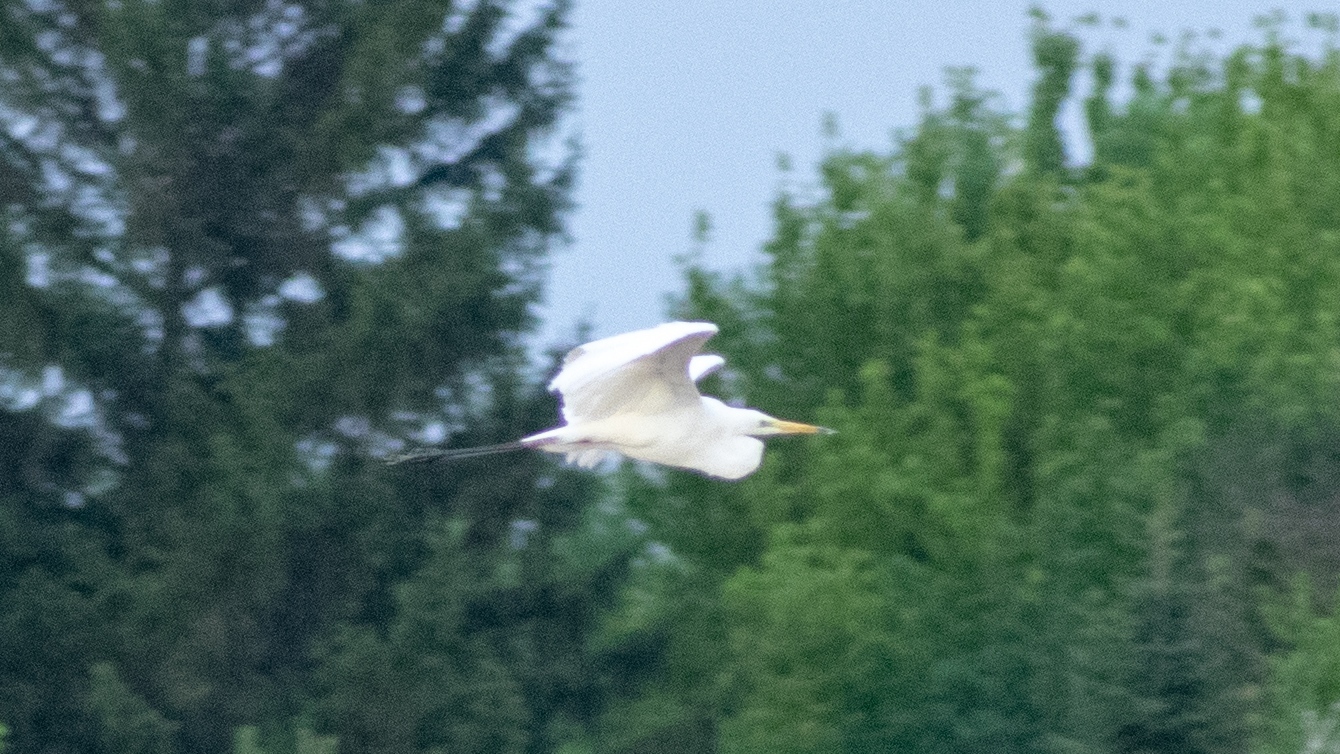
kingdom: Animalia
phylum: Chordata
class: Aves
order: Pelecaniformes
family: Ardeidae
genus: Ardea
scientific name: Ardea alba
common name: Great egret
